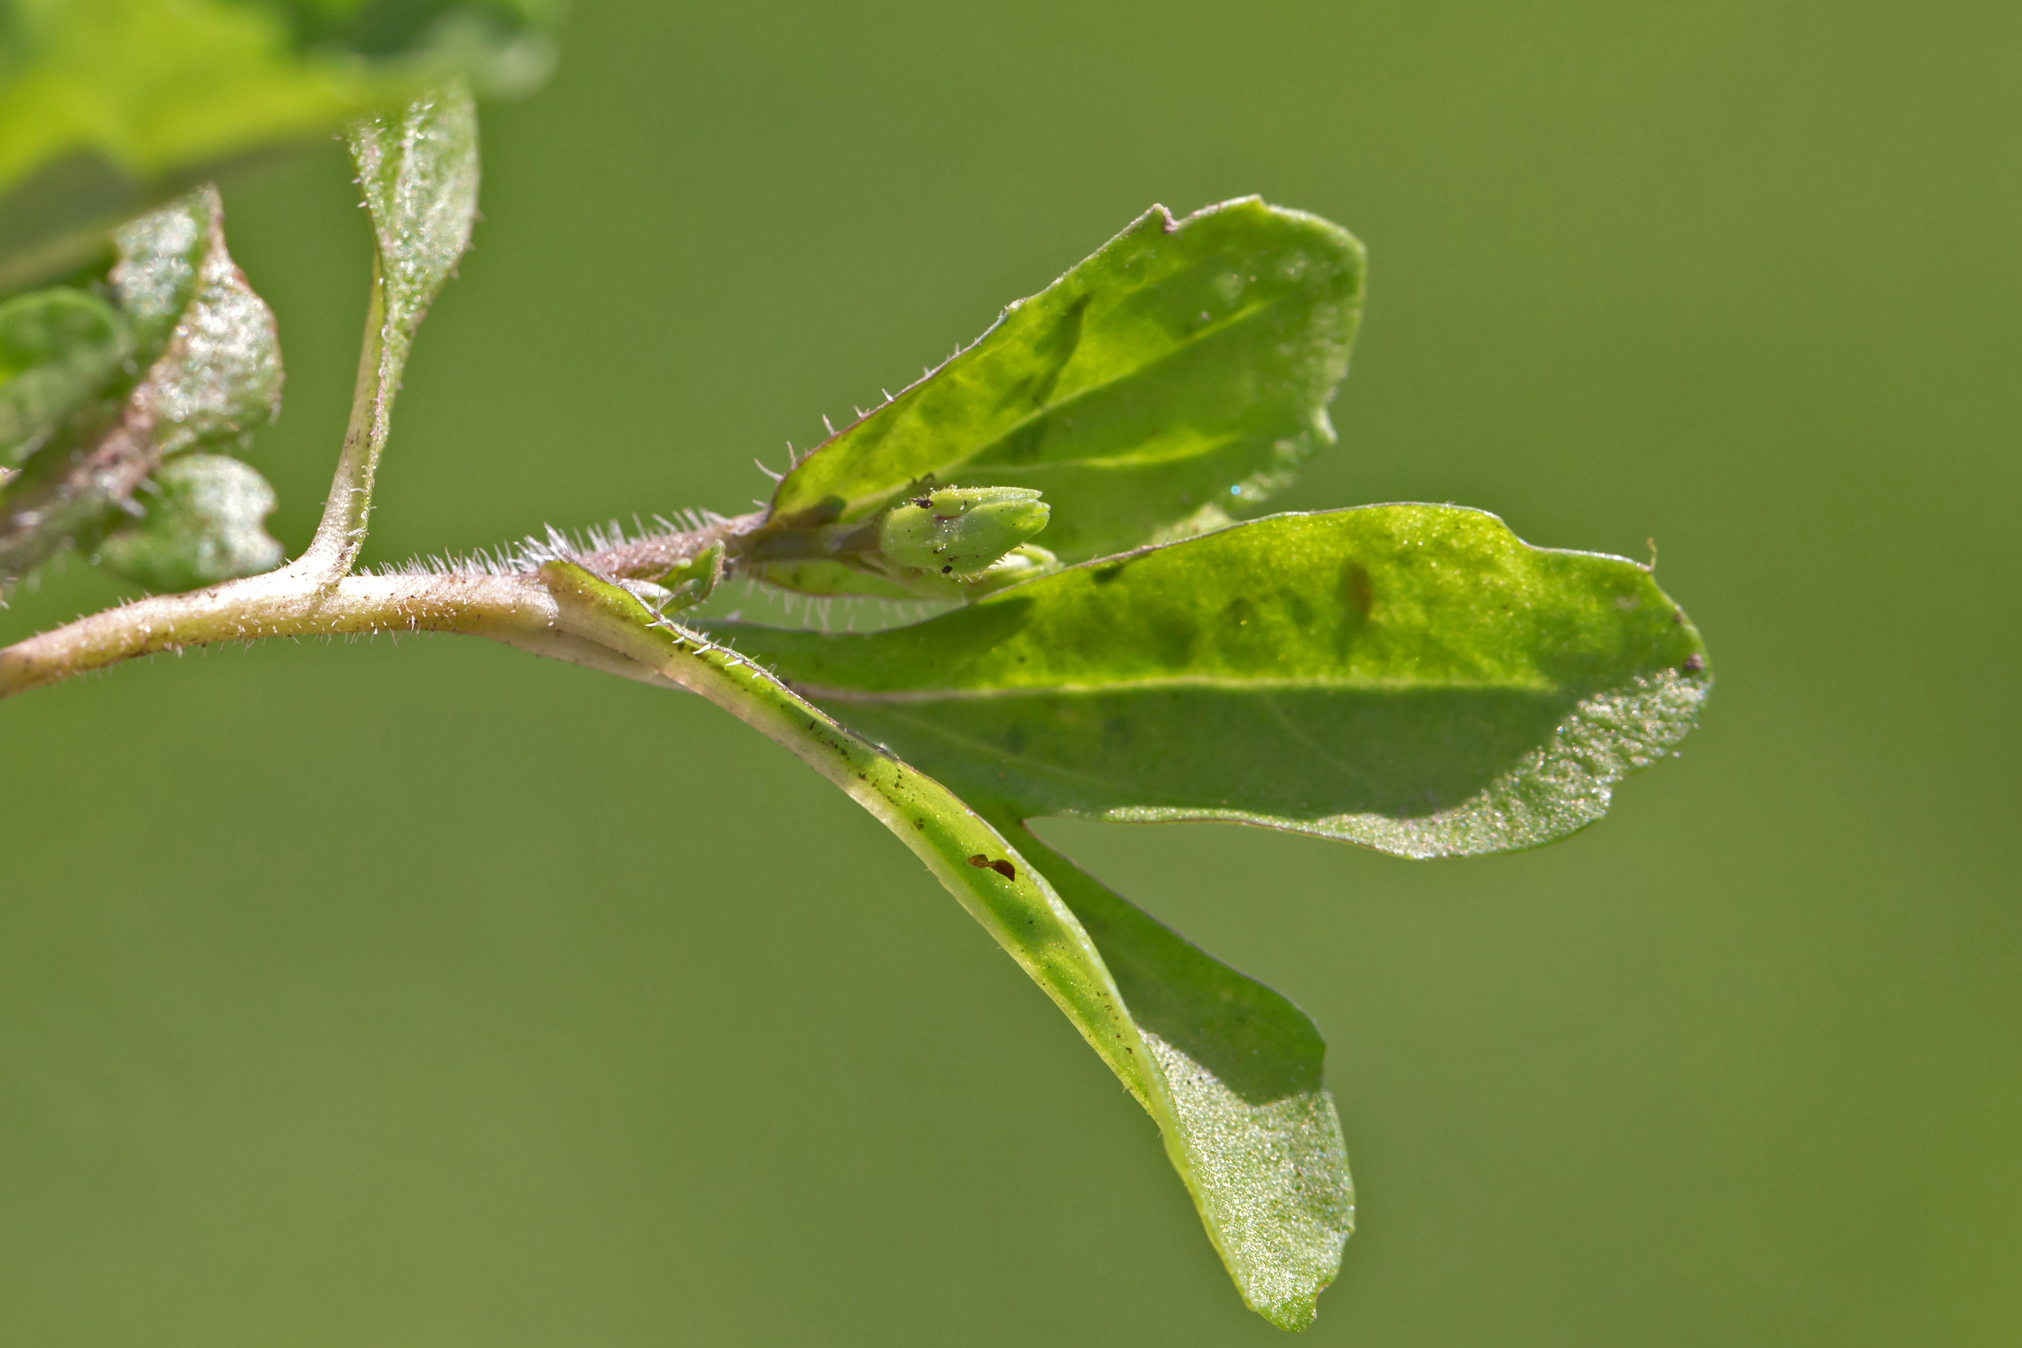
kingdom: Plantae
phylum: Tracheophyta
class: Magnoliopsida
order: Lamiales
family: Mazaceae
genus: Mazus
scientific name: Mazus pumilus
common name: Japanese mazus
